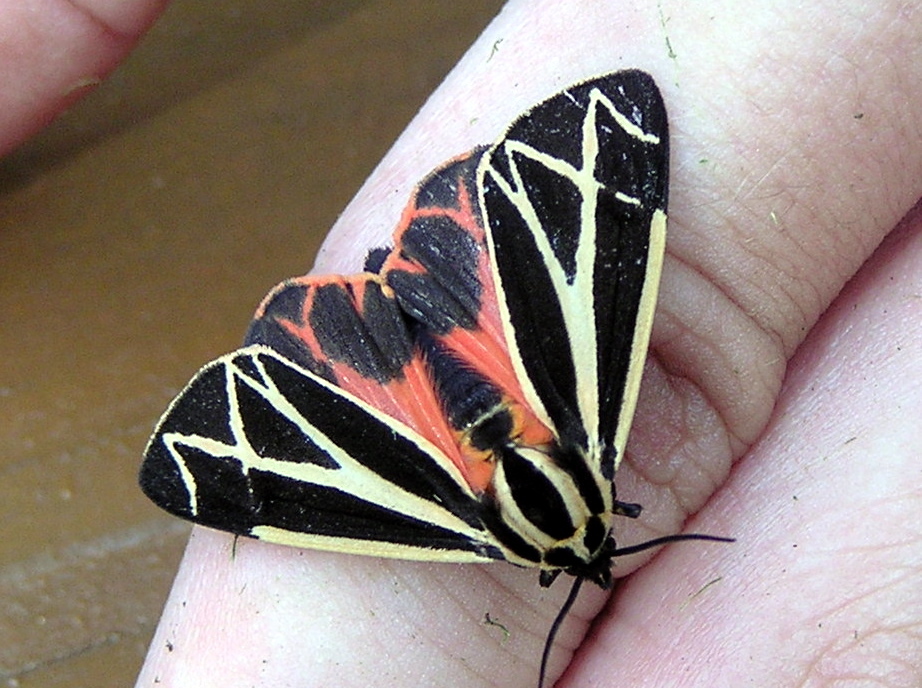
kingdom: Animalia
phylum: Arthropoda
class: Insecta
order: Lepidoptera
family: Erebidae
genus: Apantesis
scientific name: Apantesis phalerata
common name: Harnessed tiger moth
